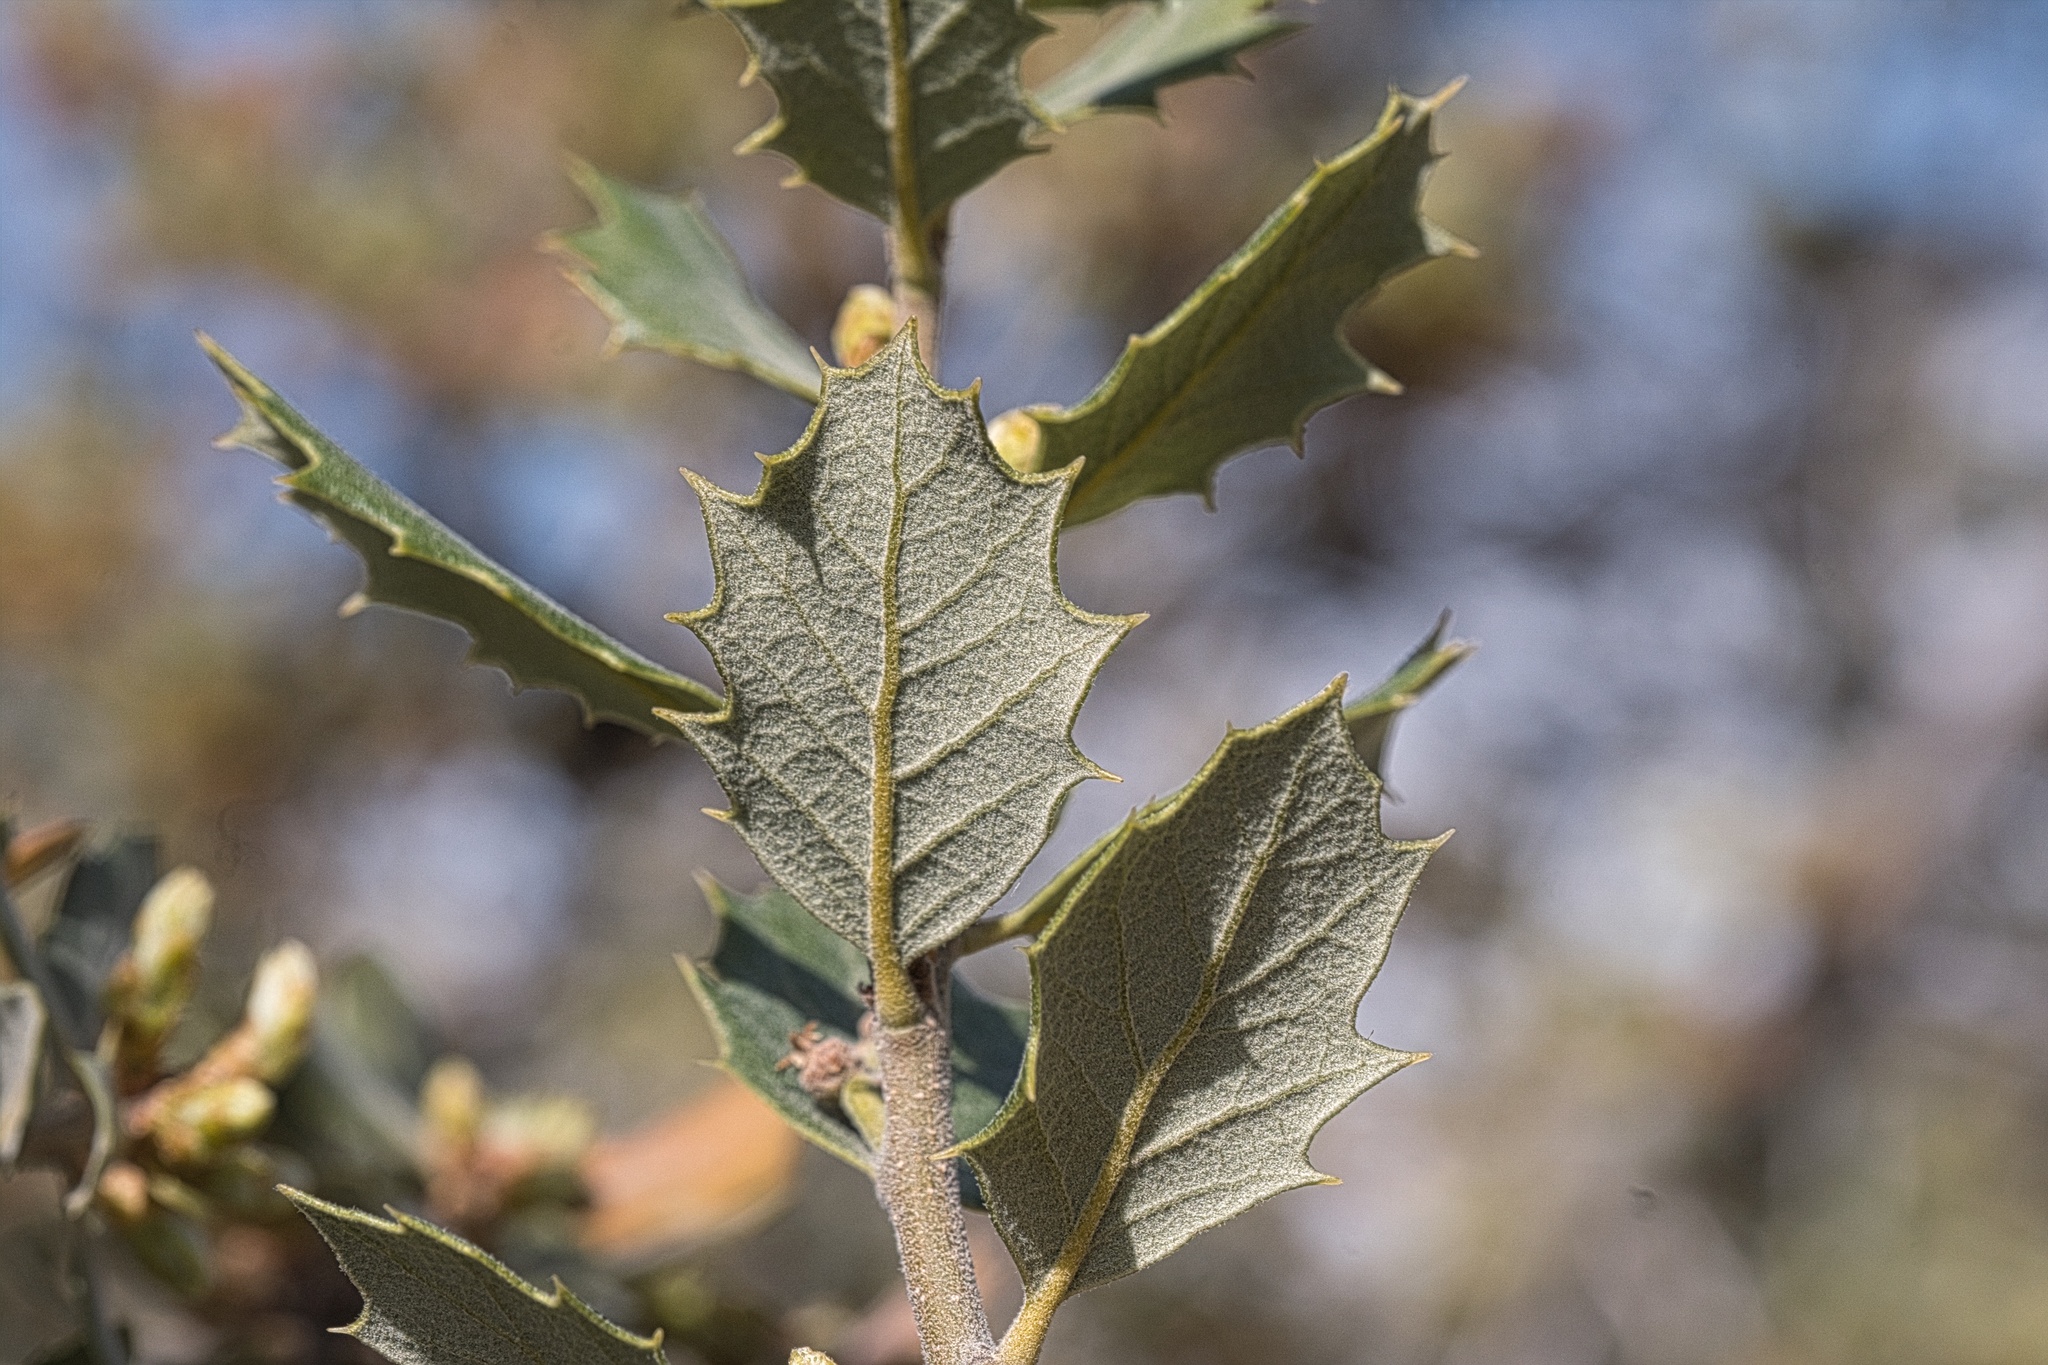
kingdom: Plantae
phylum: Tracheophyta
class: Magnoliopsida
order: Fagales
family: Fagaceae
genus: Quercus
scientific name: Quercus cornelius-mulleri
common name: Muller oak
